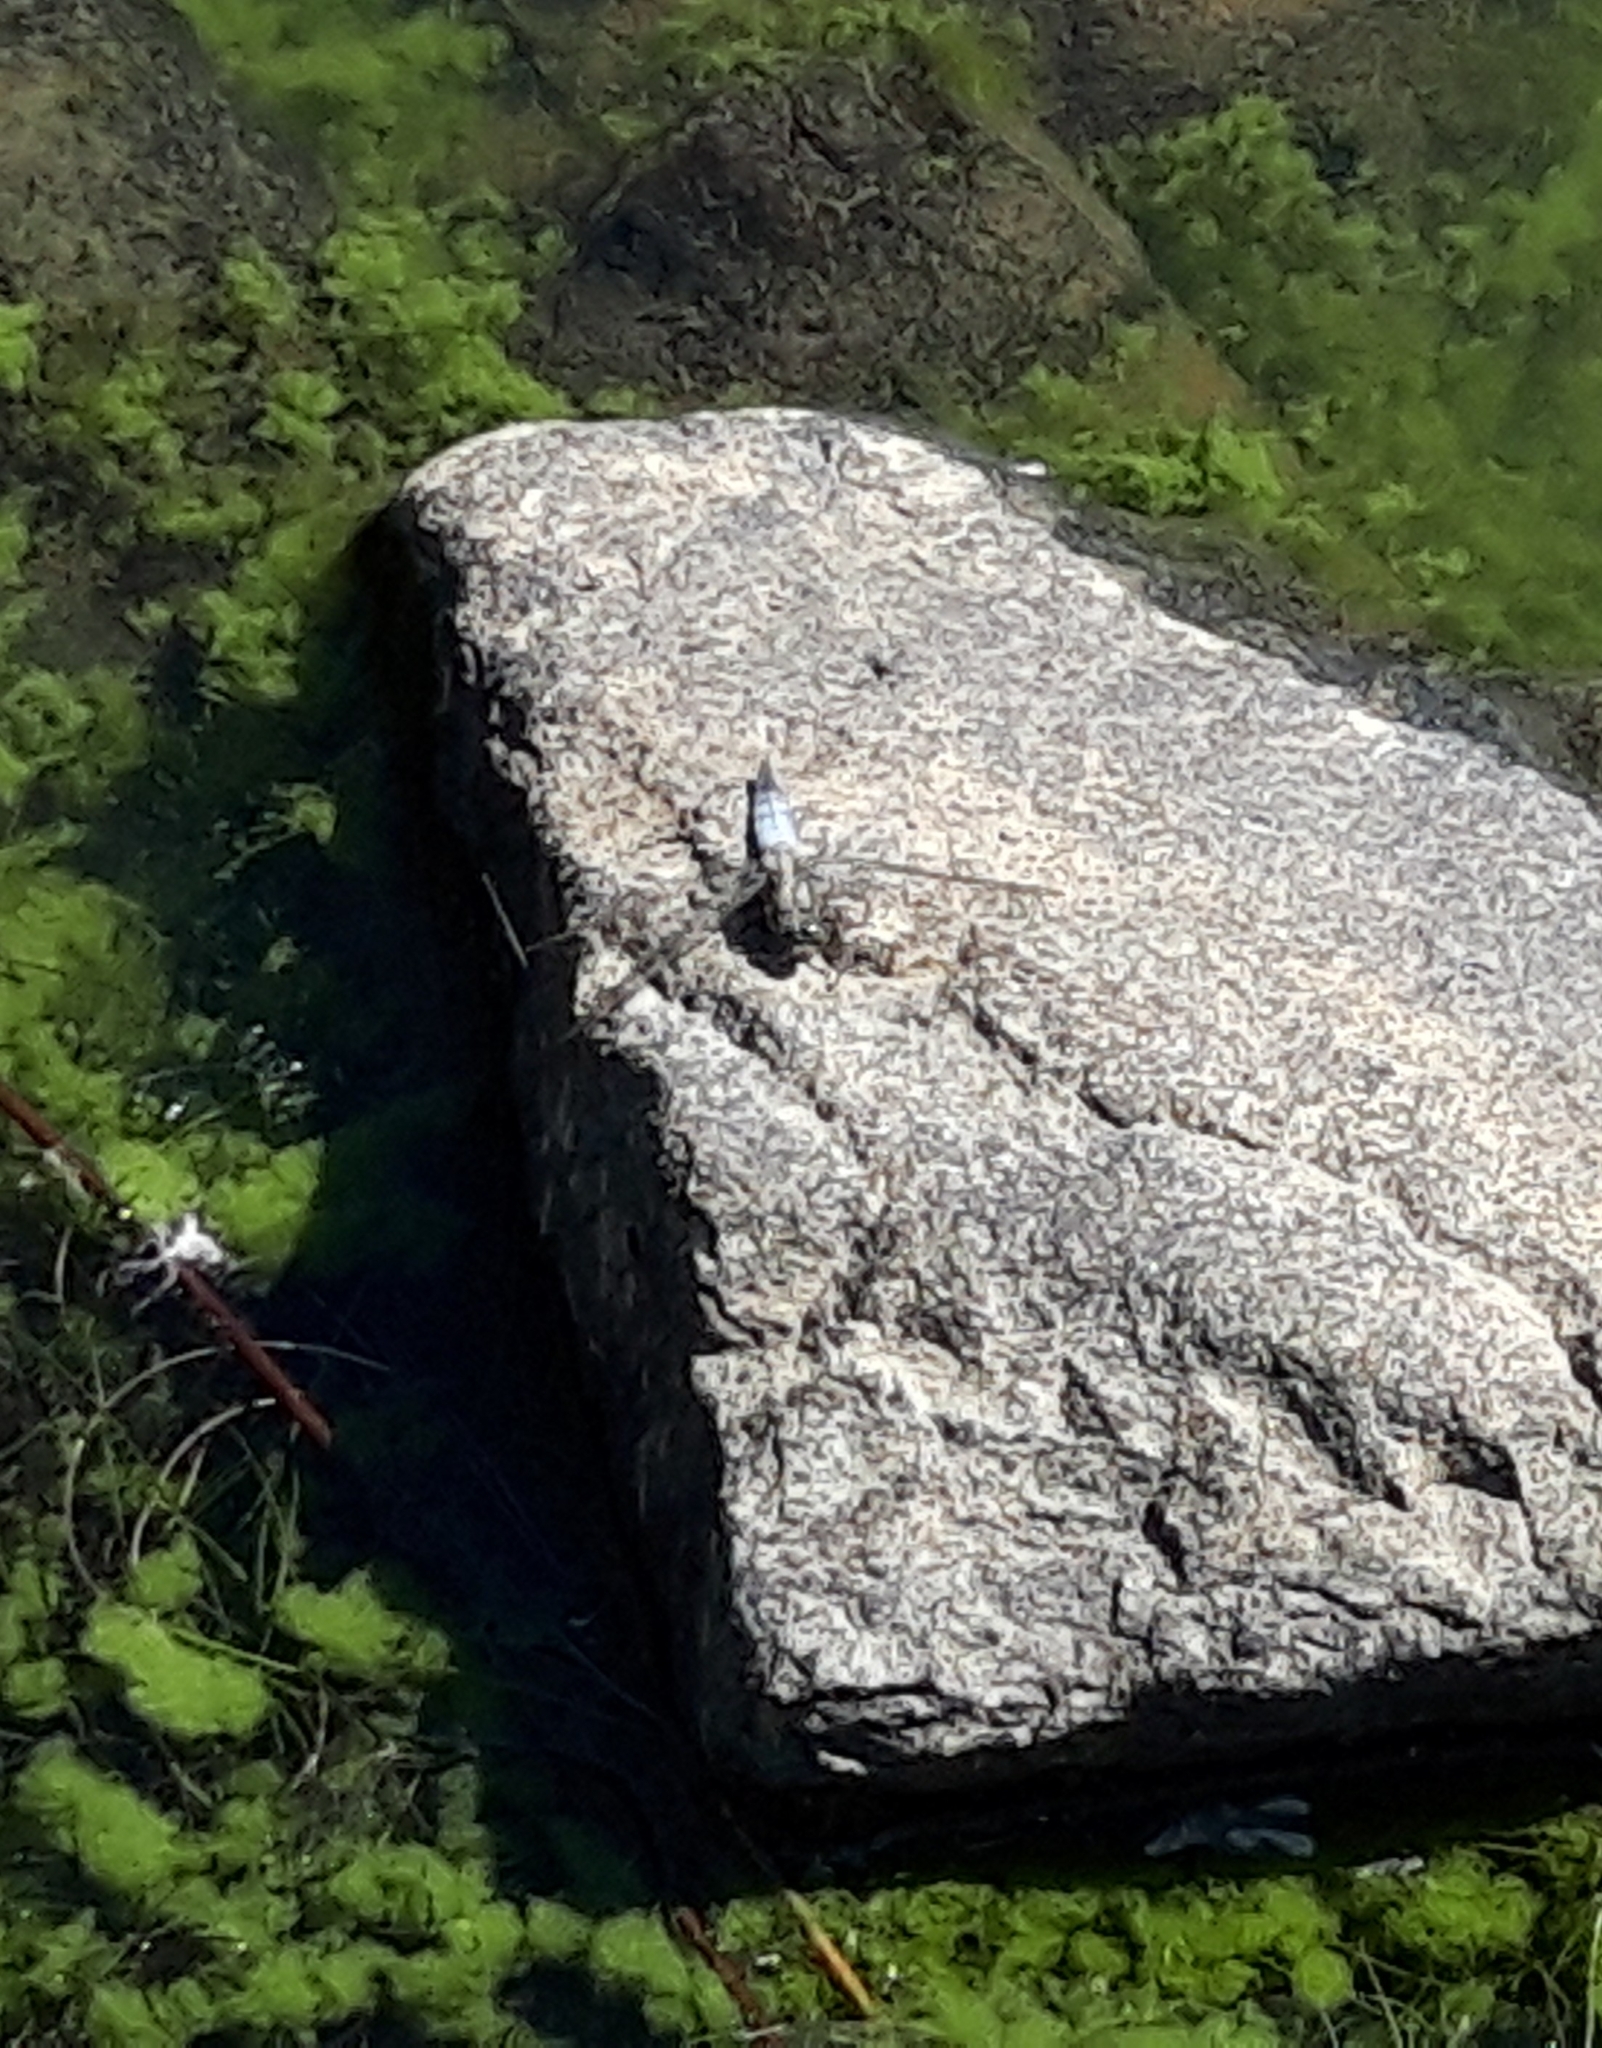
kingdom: Animalia
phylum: Arthropoda
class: Insecta
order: Odonata
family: Libellulidae
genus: Orthetrum
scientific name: Orthetrum cancellatum
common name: Black-tailed skimmer
